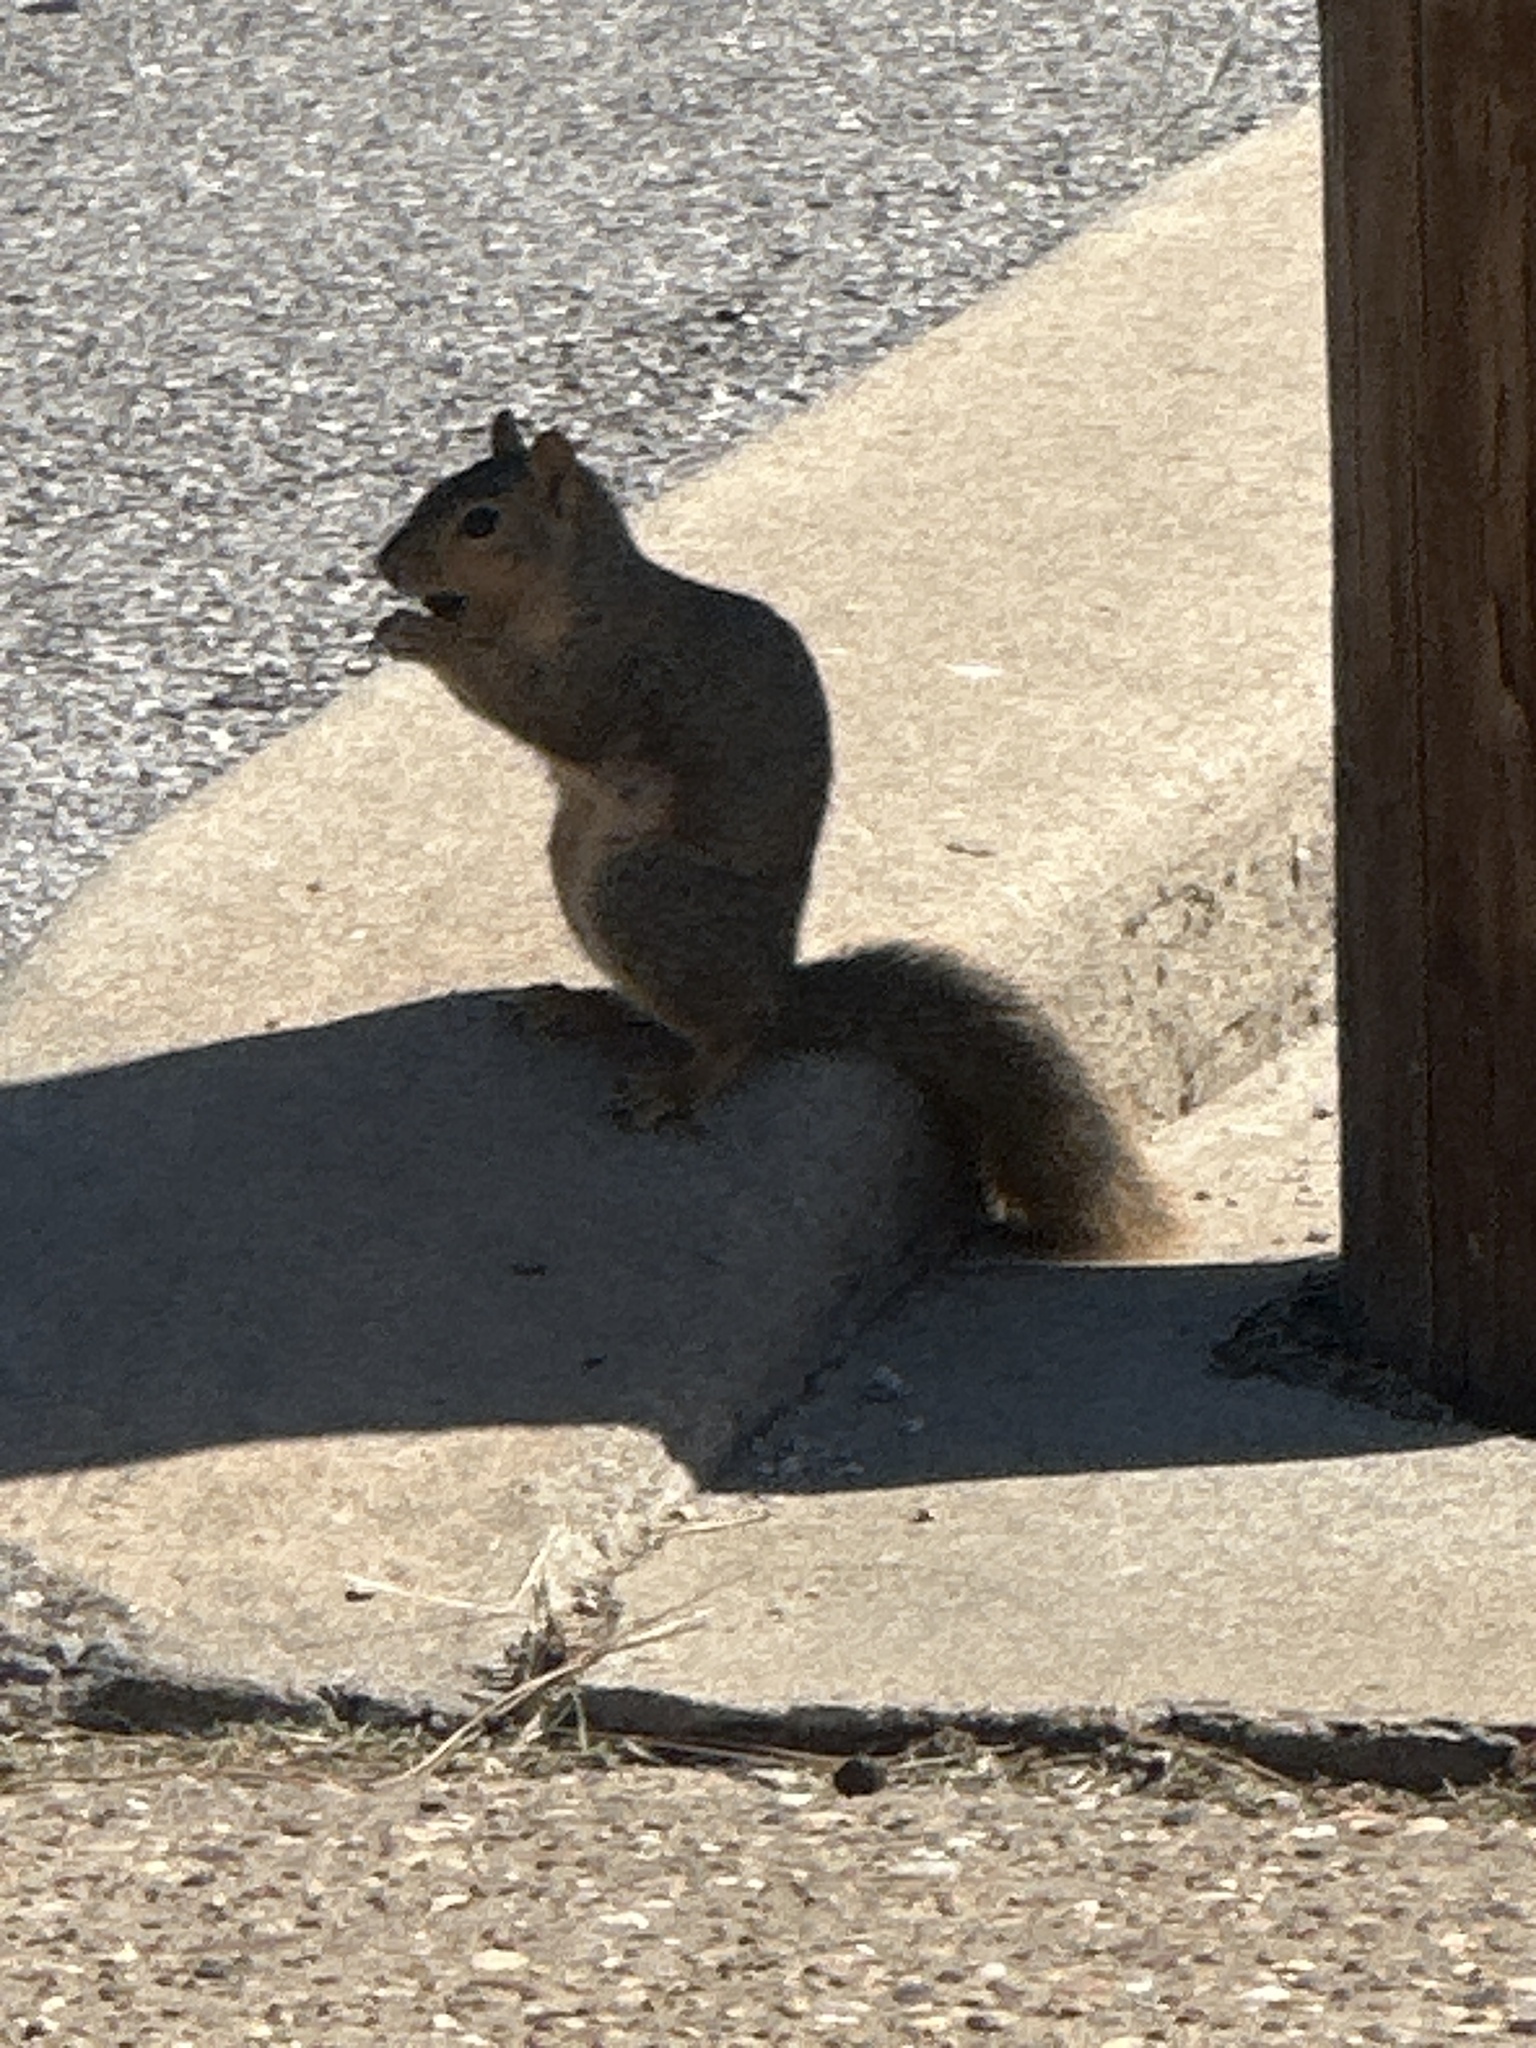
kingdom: Animalia
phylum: Chordata
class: Mammalia
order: Rodentia
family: Sciuridae
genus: Sciurus
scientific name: Sciurus niger
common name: Fox squirrel
